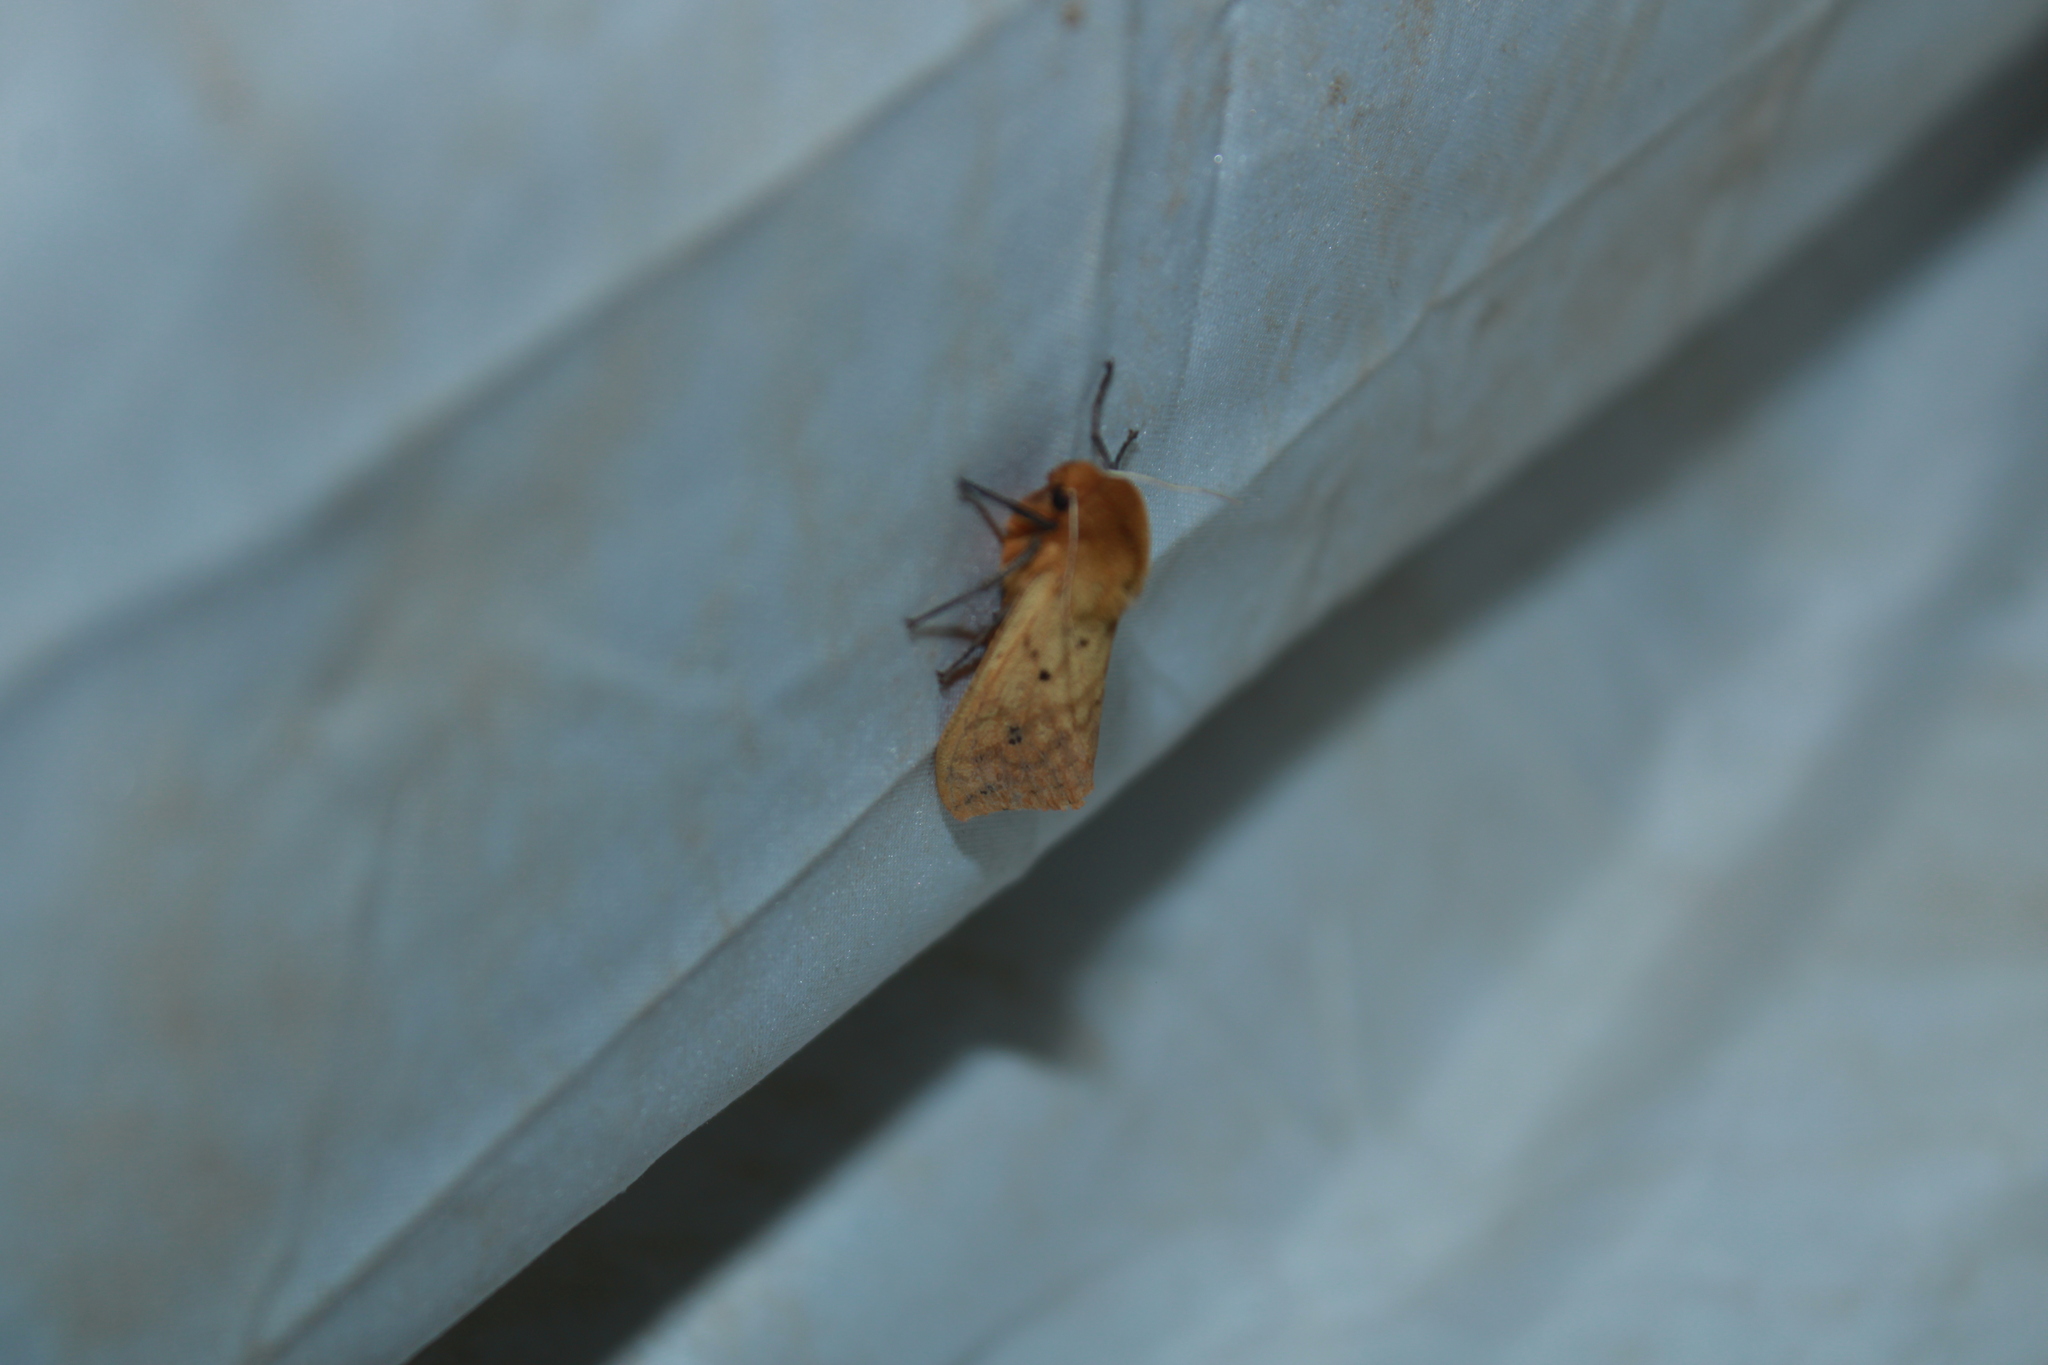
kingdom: Animalia
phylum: Arthropoda
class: Insecta
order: Lepidoptera
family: Erebidae
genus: Pyrrharctia
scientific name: Pyrrharctia isabella
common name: Isabella tiger moth
